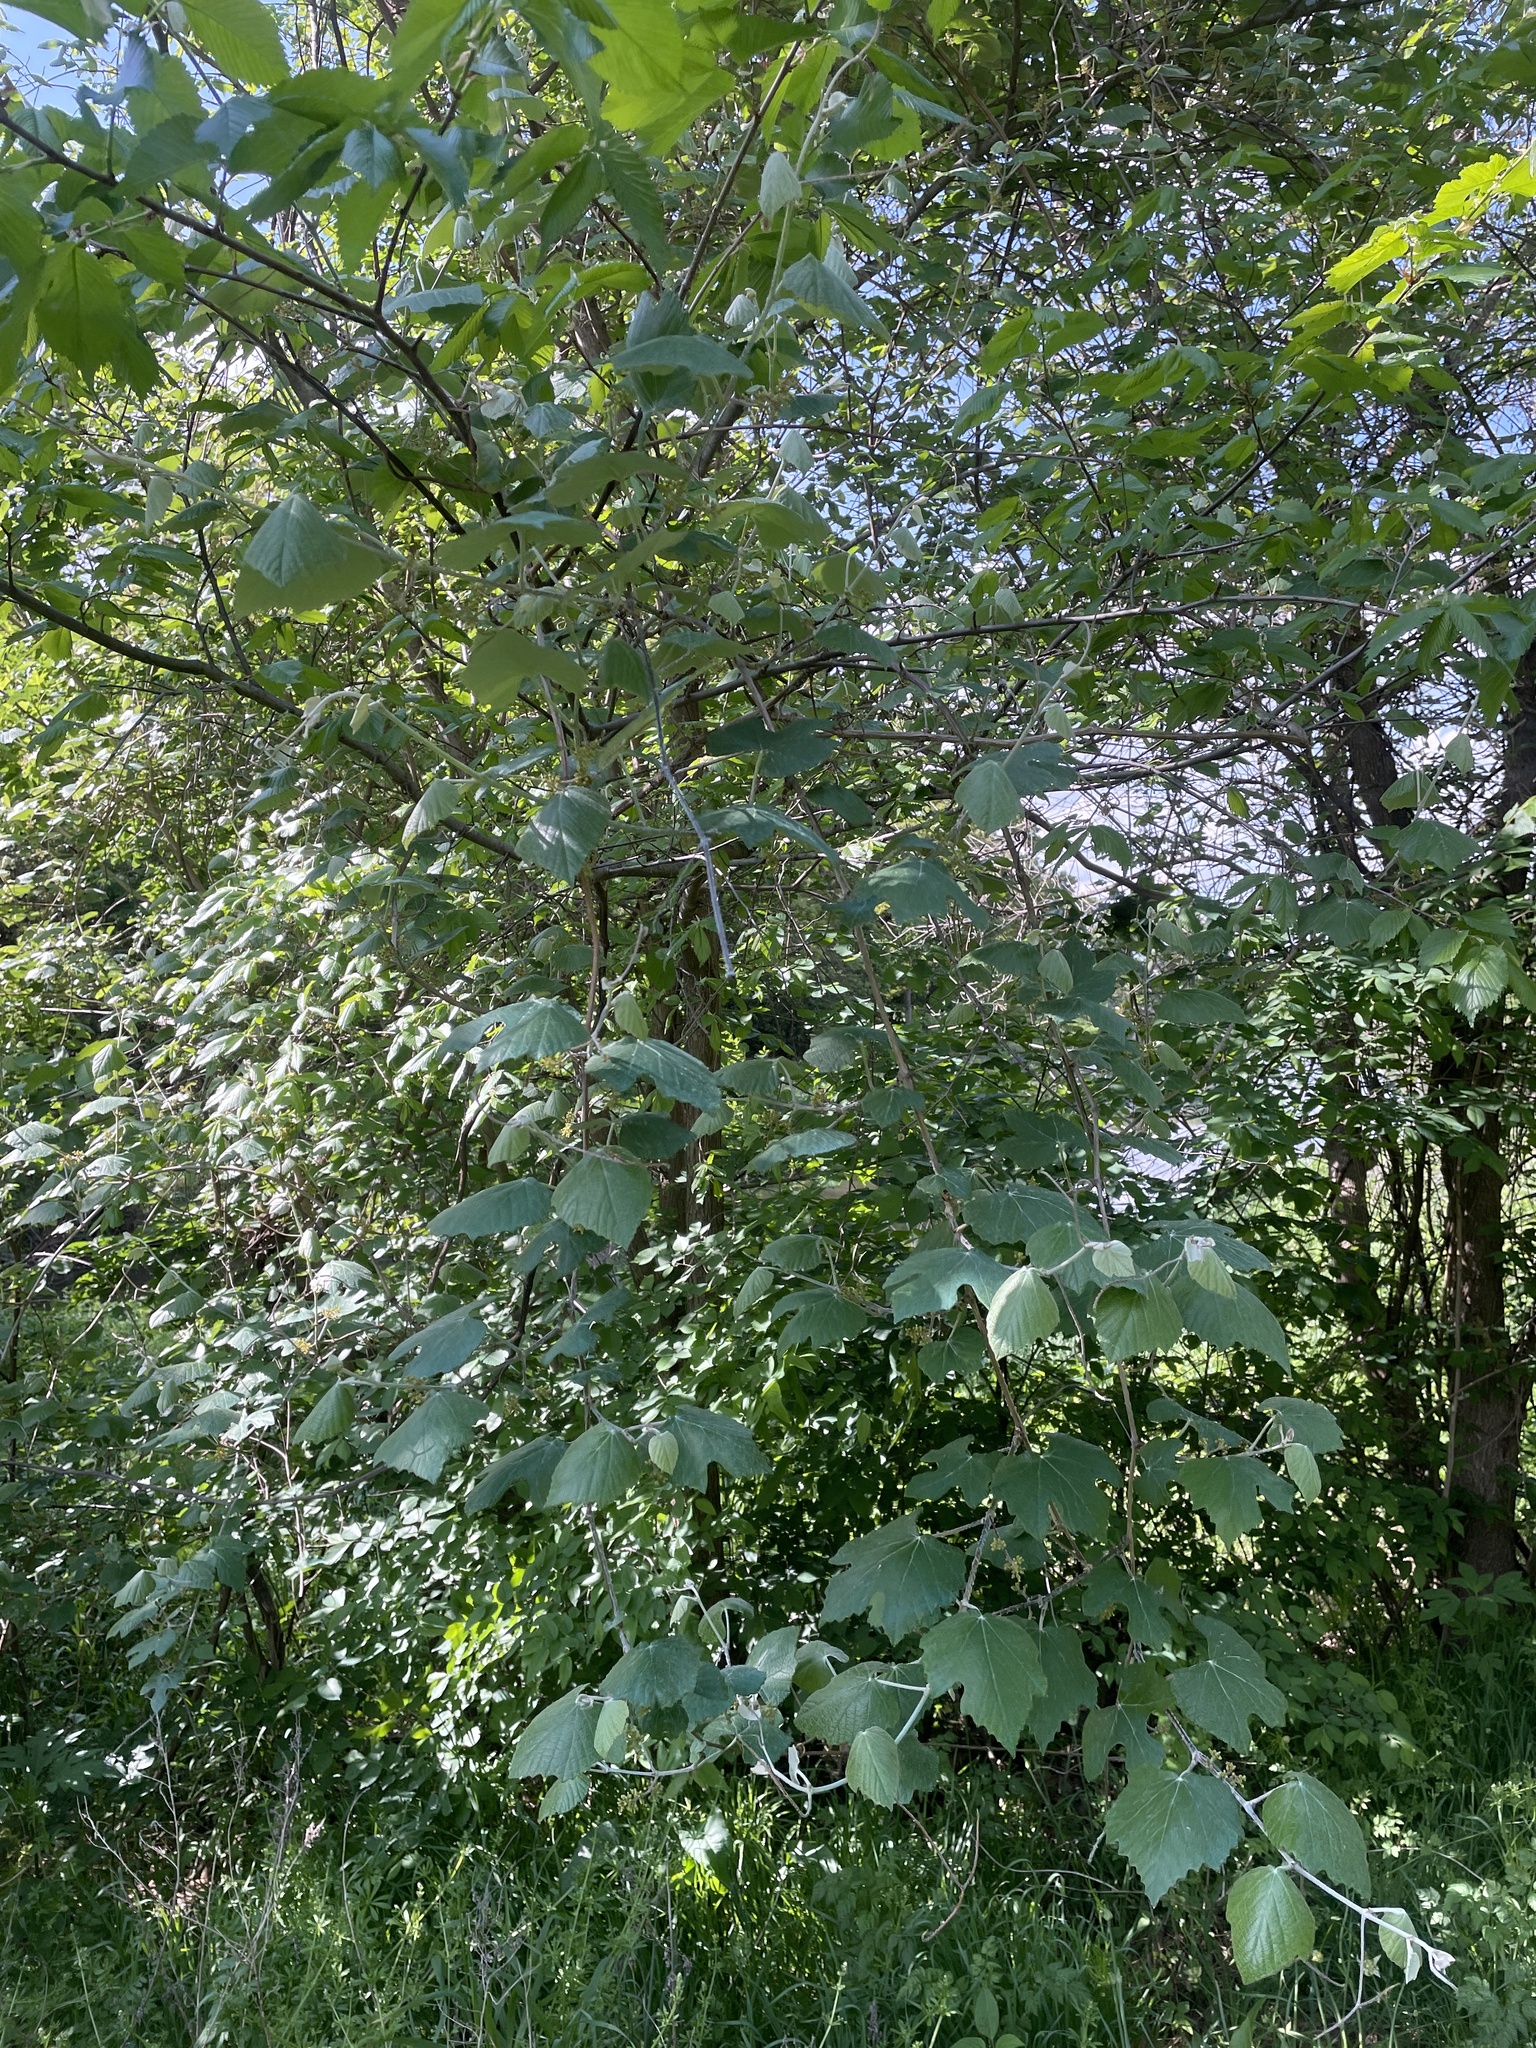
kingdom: Plantae
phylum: Tracheophyta
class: Magnoliopsida
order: Vitales
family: Vitaceae
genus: Vitis
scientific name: Vitis mustangensis
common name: Mustang grape
